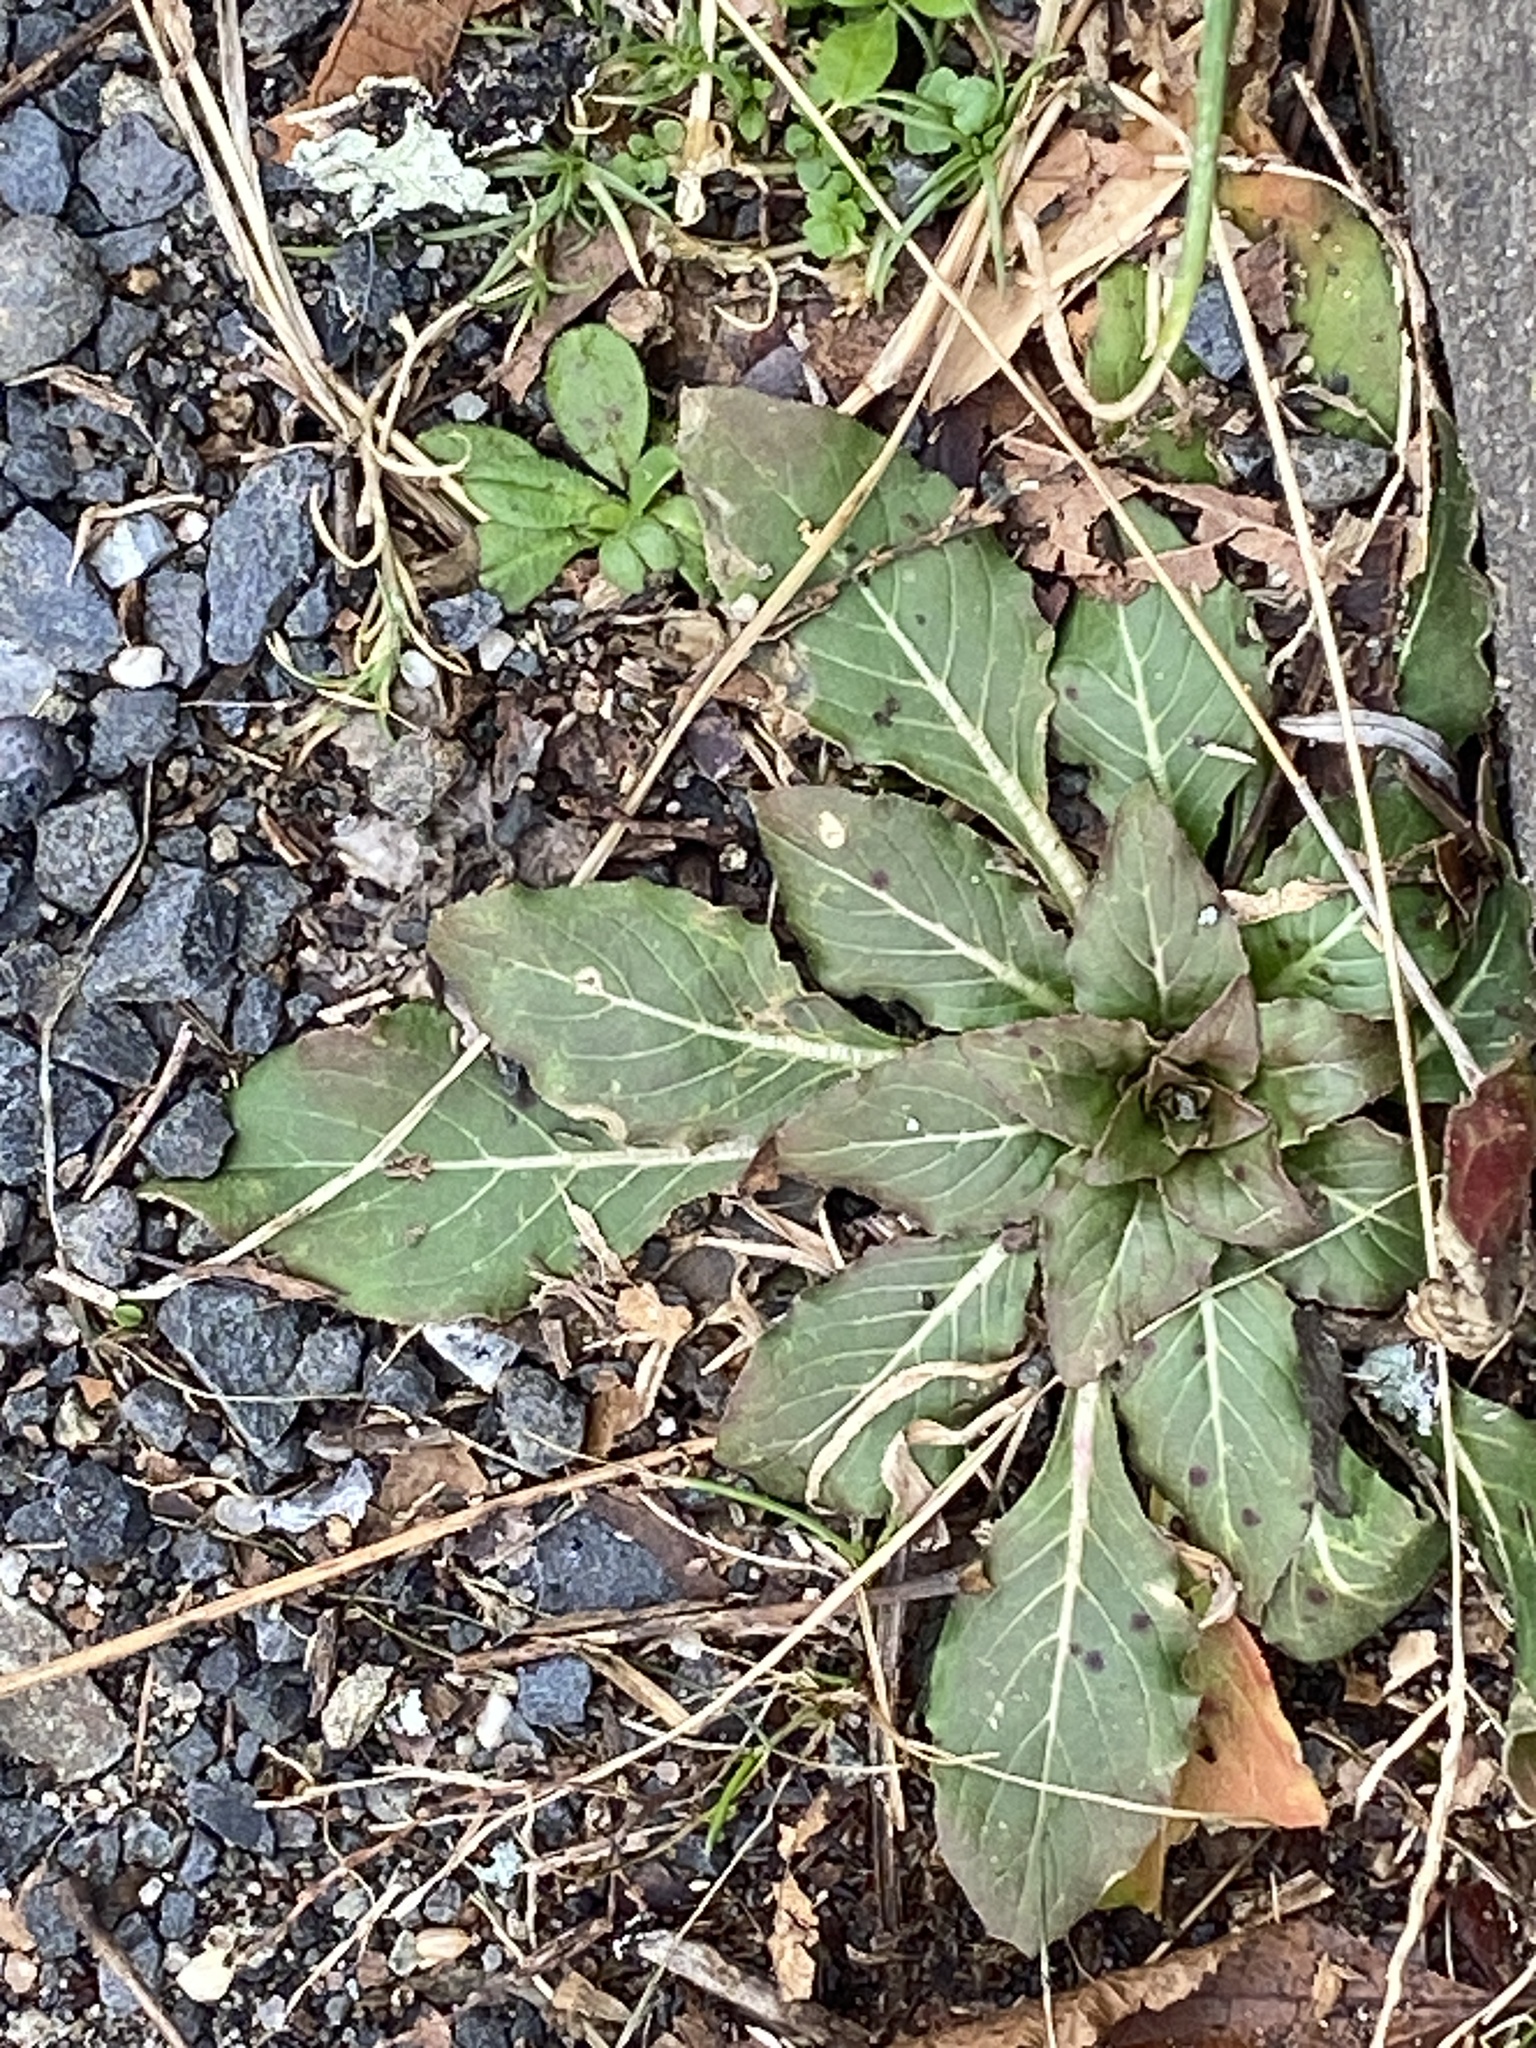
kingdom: Plantae
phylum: Tracheophyta
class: Magnoliopsida
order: Myrtales
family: Onagraceae
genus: Oenothera
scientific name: Oenothera biennis
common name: Common evening-primrose
